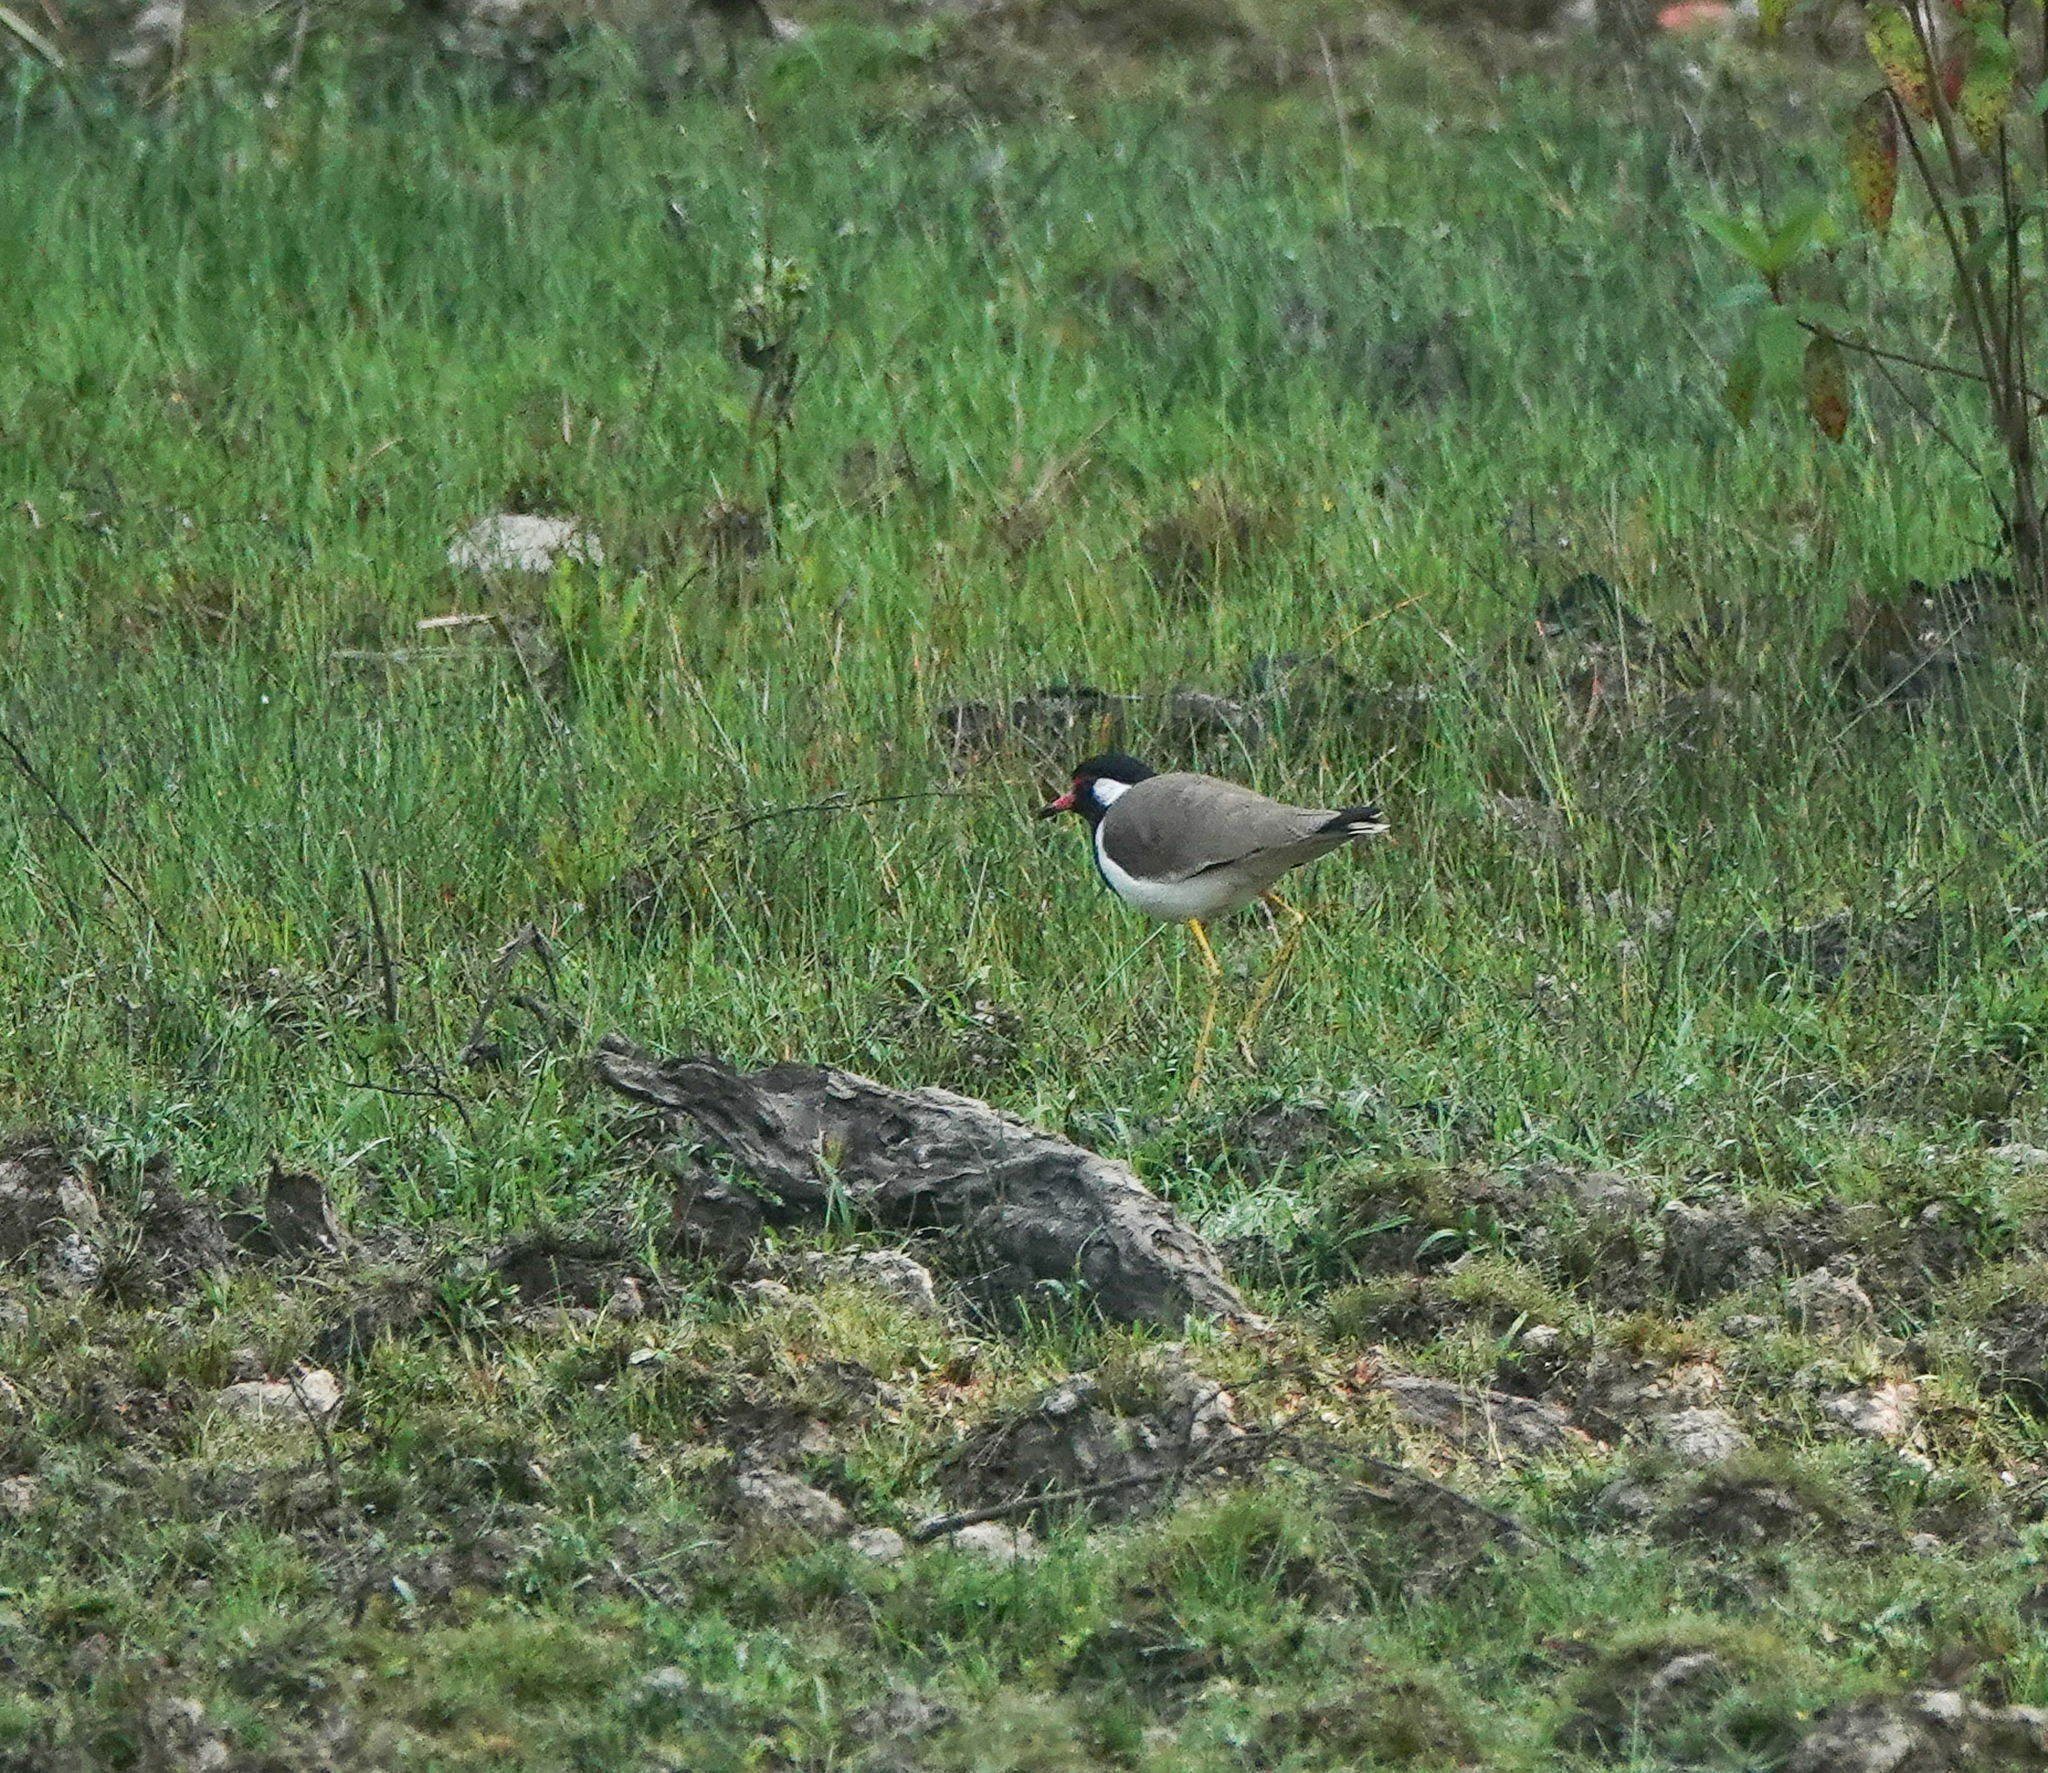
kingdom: Animalia
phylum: Chordata
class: Aves
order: Charadriiformes
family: Charadriidae
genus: Vanellus
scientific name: Vanellus indicus
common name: Red-wattled lapwing
